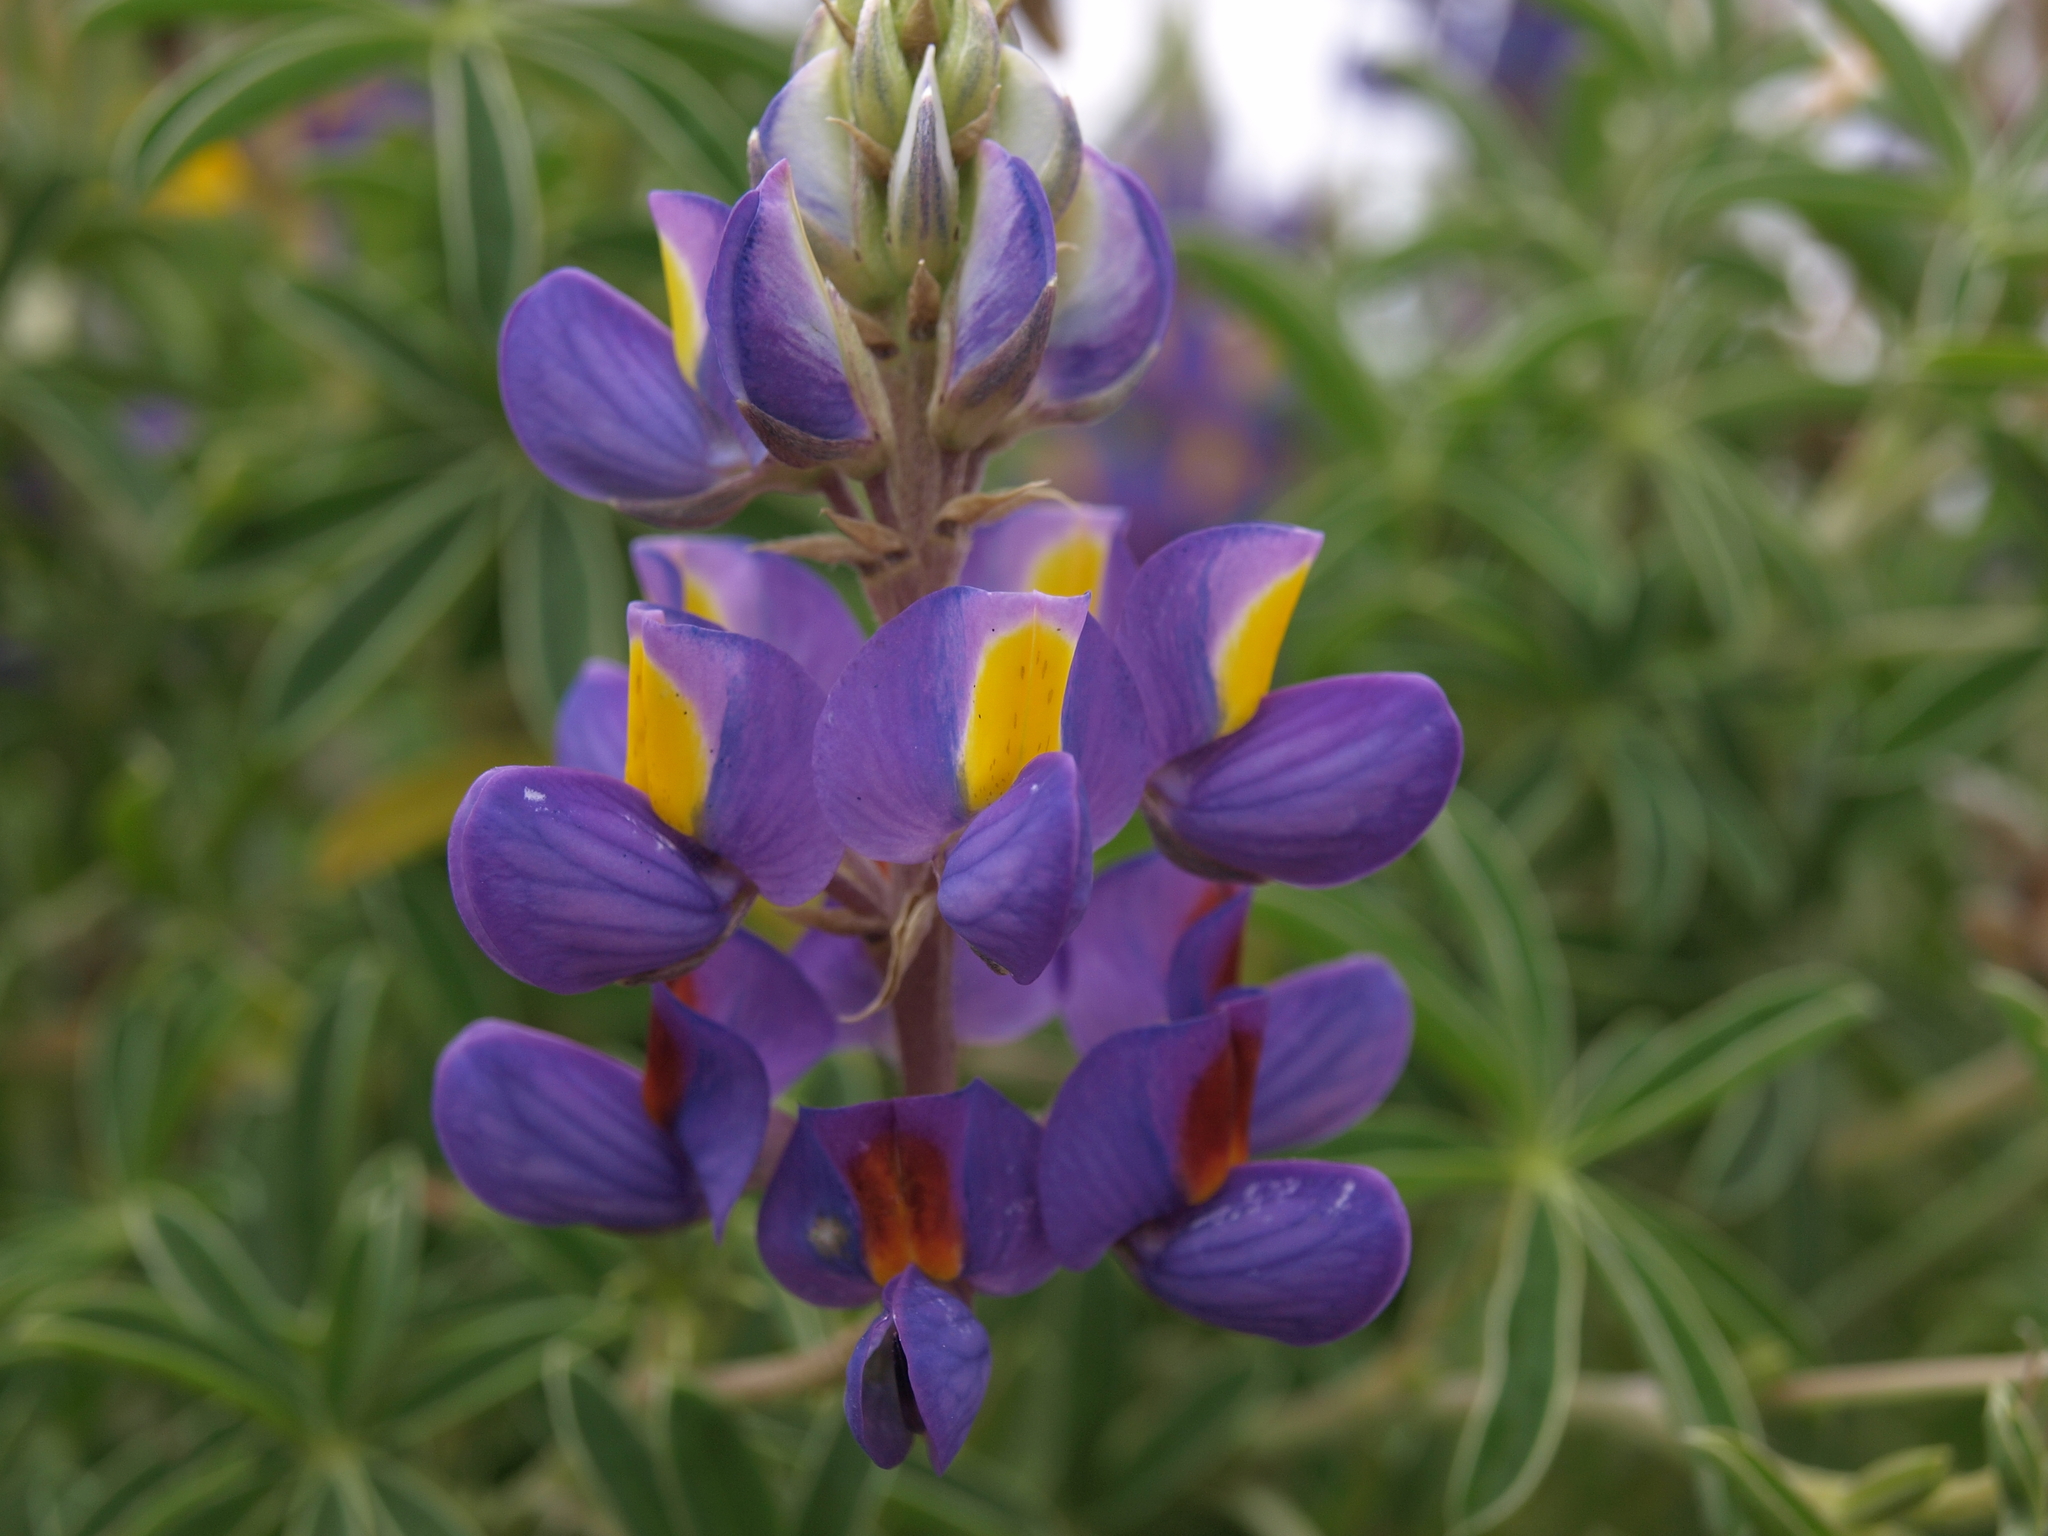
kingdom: Plantae
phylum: Tracheophyta
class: Magnoliopsida
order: Fabales
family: Fabaceae
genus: Lupinus
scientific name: Lupinus paniculatus
